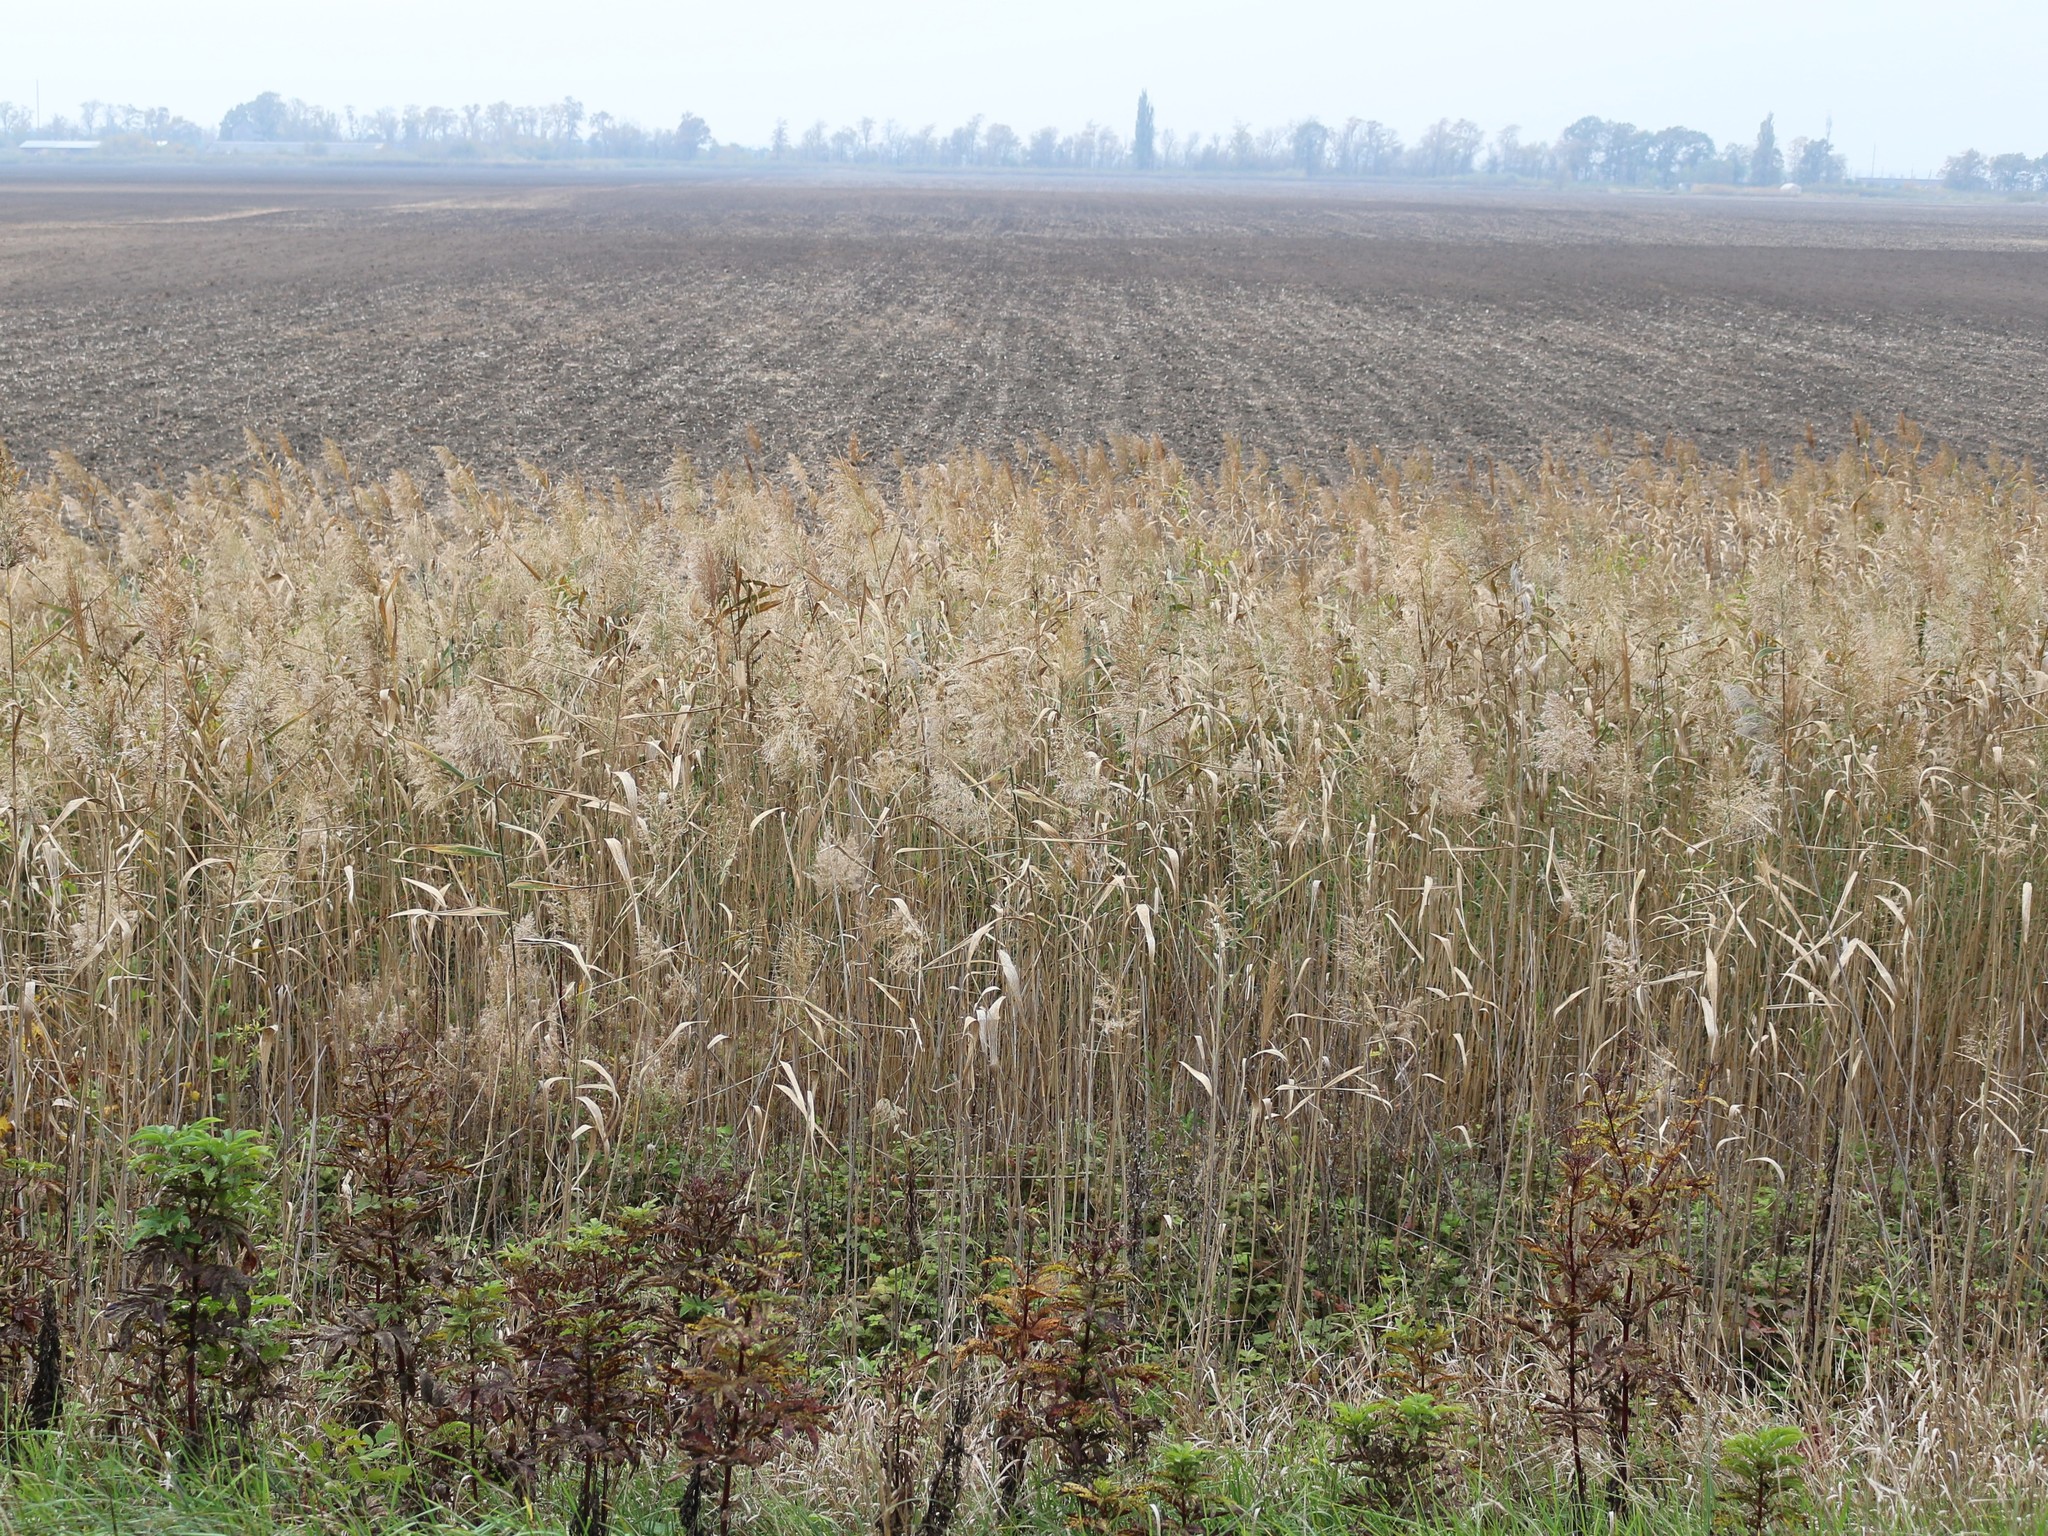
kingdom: Plantae
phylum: Tracheophyta
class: Liliopsida
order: Poales
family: Poaceae
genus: Phragmites
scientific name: Phragmites australis
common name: Common reed
